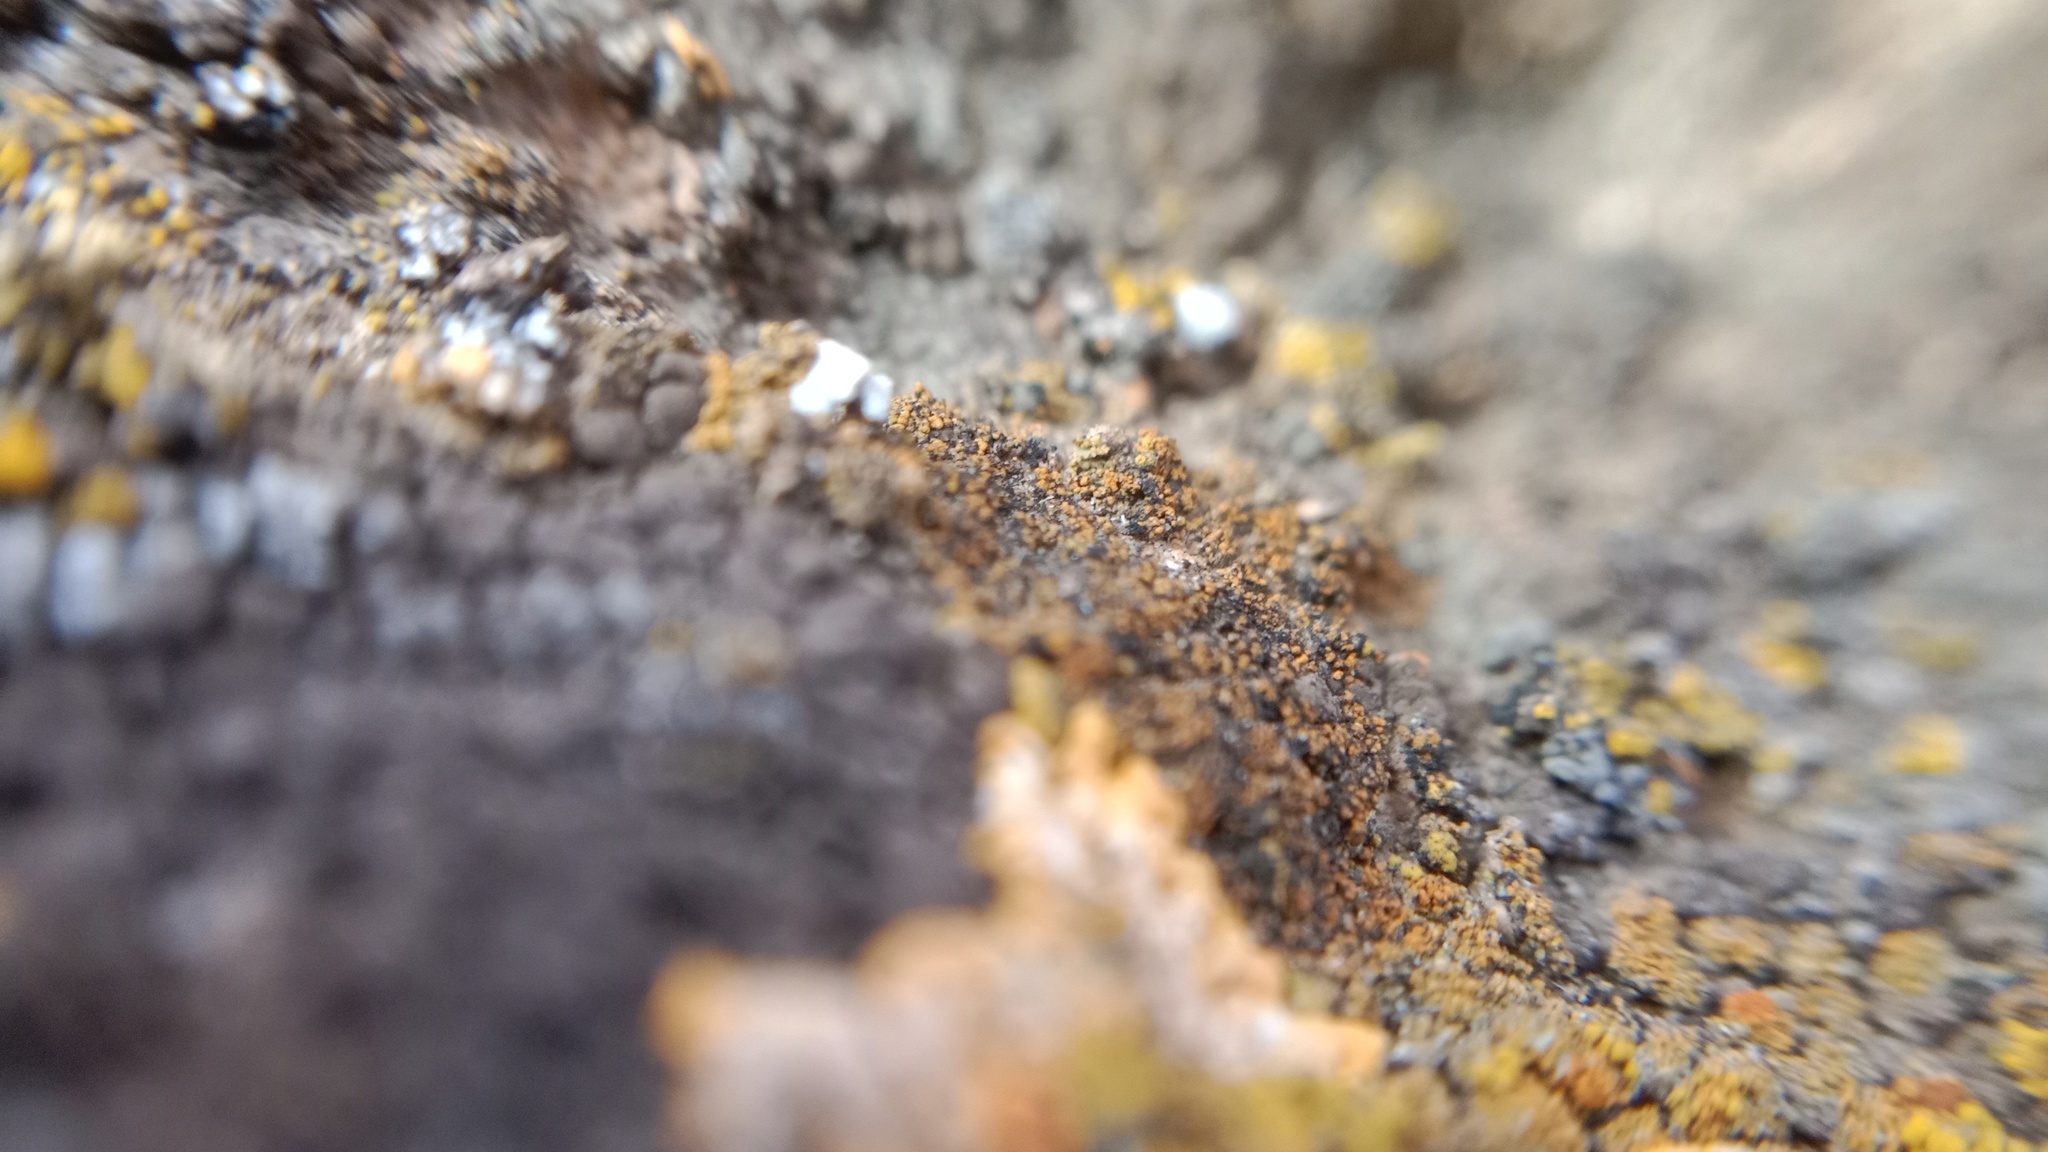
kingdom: Fungi
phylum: Ascomycota
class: Lecanoromycetes
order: Teloschistales
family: Teloschistaceae
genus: Flavoplaca
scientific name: Flavoplaca coronata
